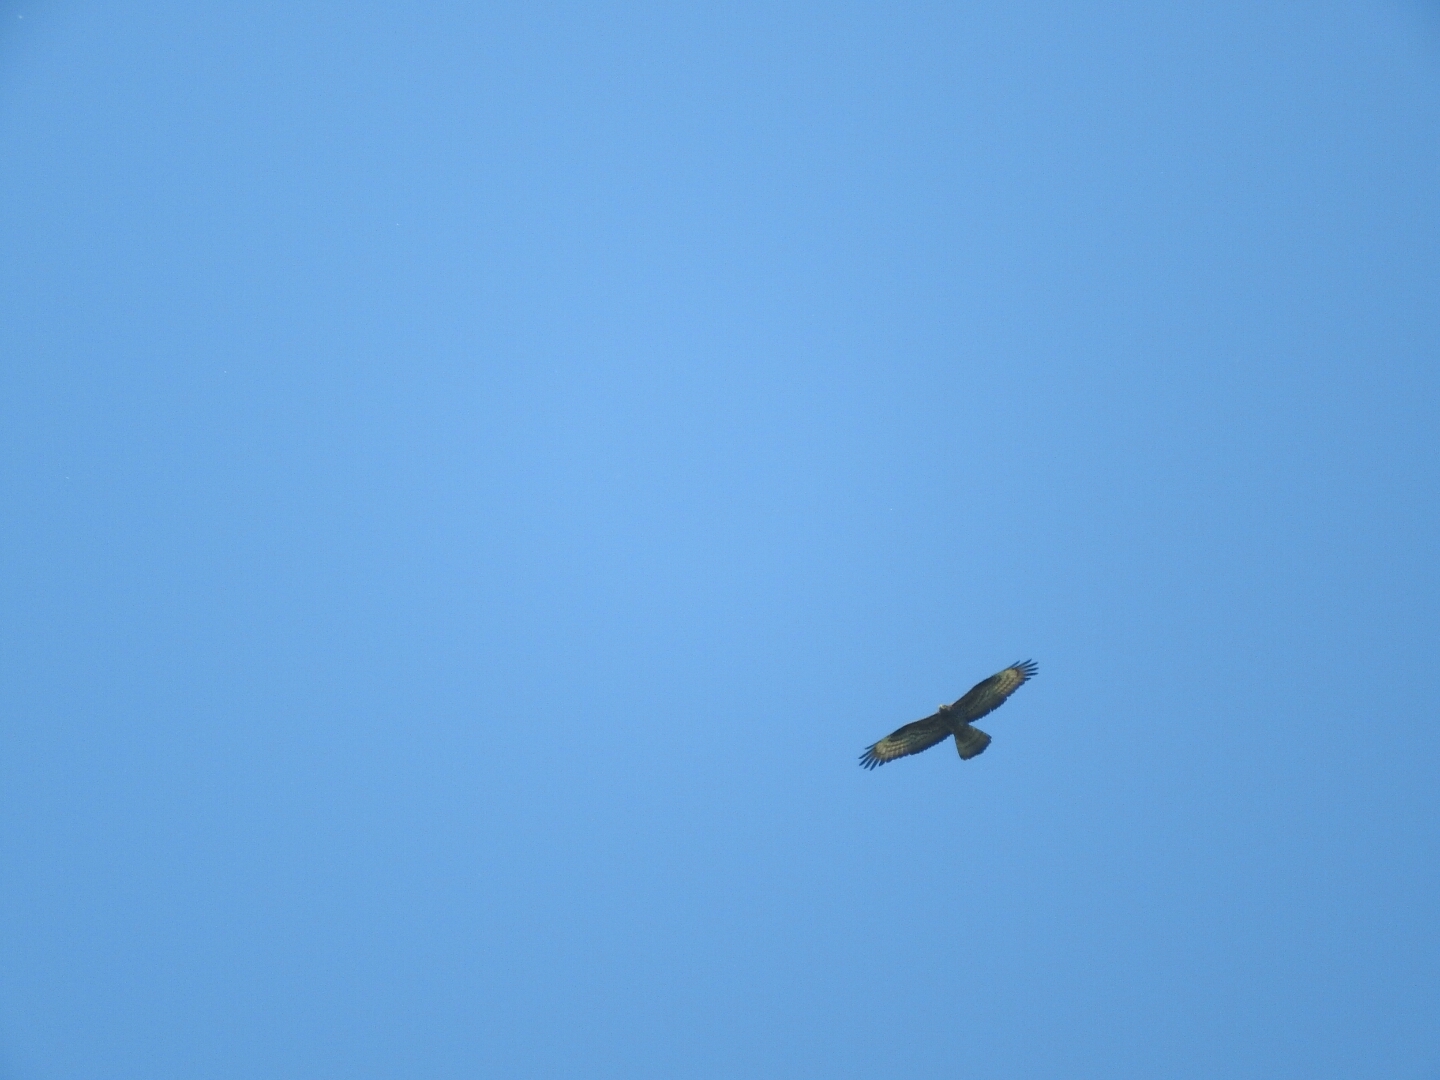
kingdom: Animalia
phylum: Chordata
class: Aves
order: Accipitriformes
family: Accipitridae
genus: Pernis
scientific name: Pernis apivorus
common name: European honey buzzard
